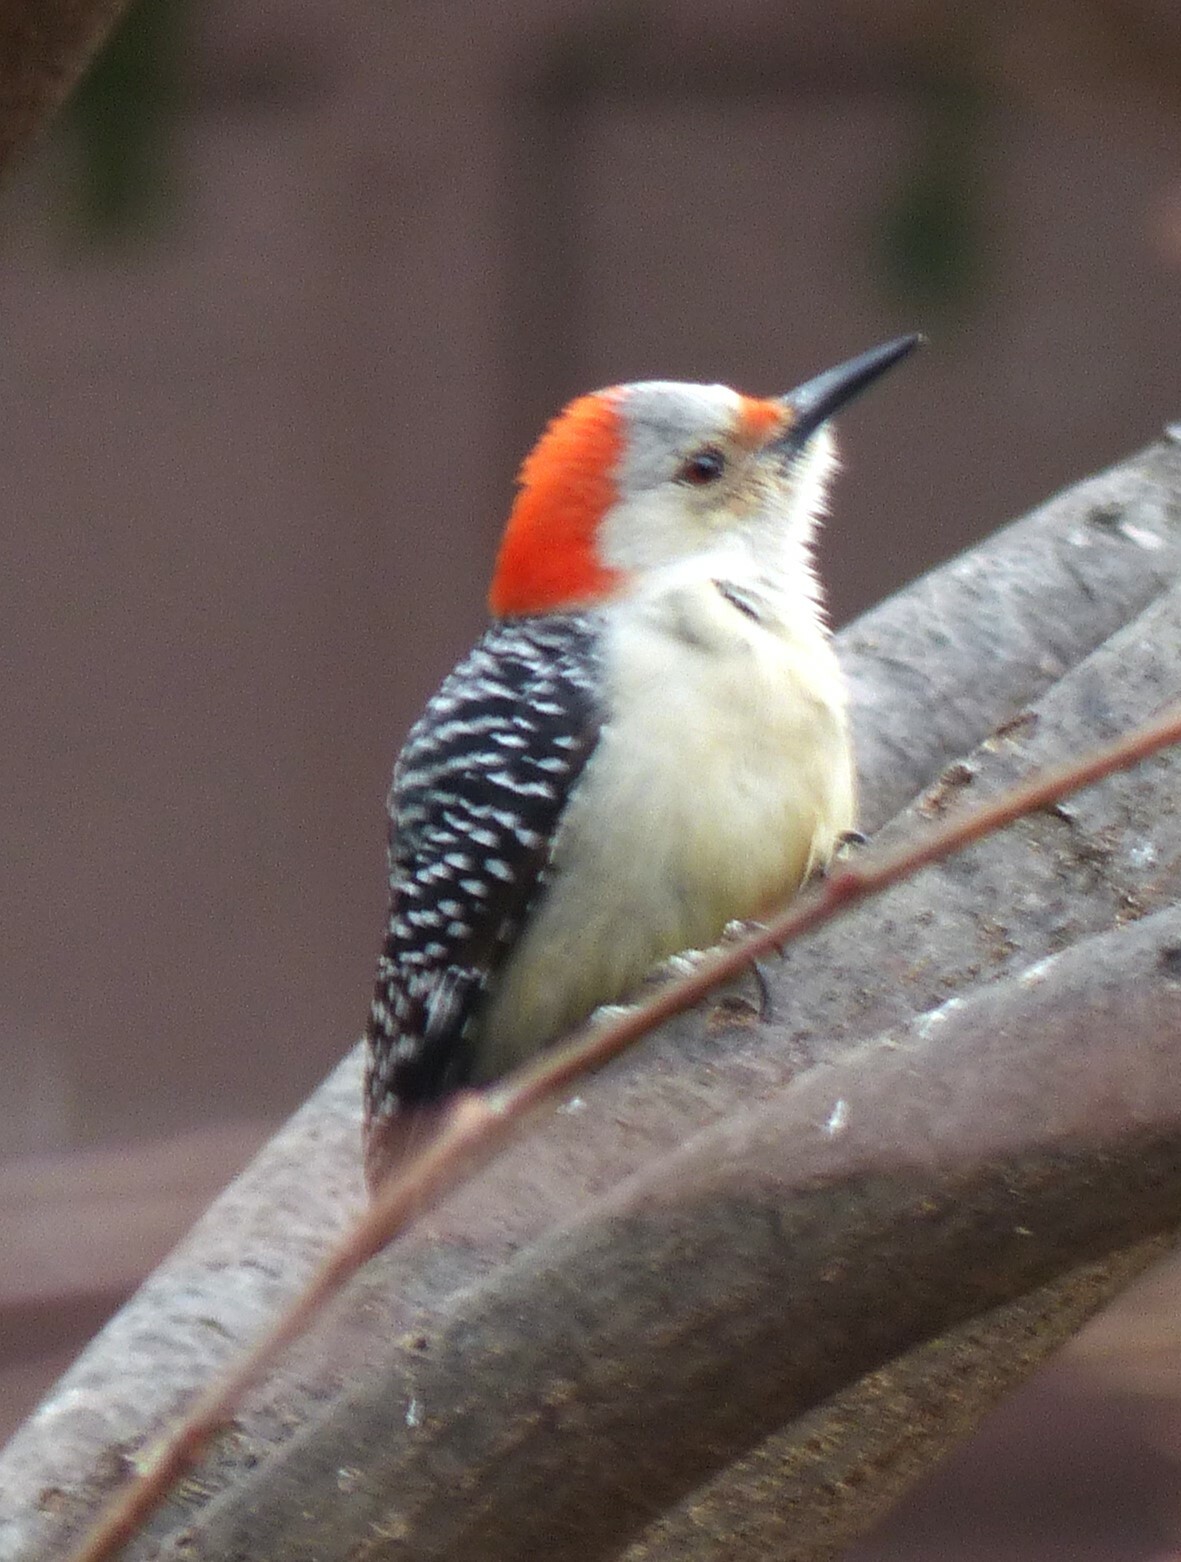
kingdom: Animalia
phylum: Chordata
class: Aves
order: Piciformes
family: Picidae
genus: Melanerpes
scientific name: Melanerpes carolinus
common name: Red-bellied woodpecker
